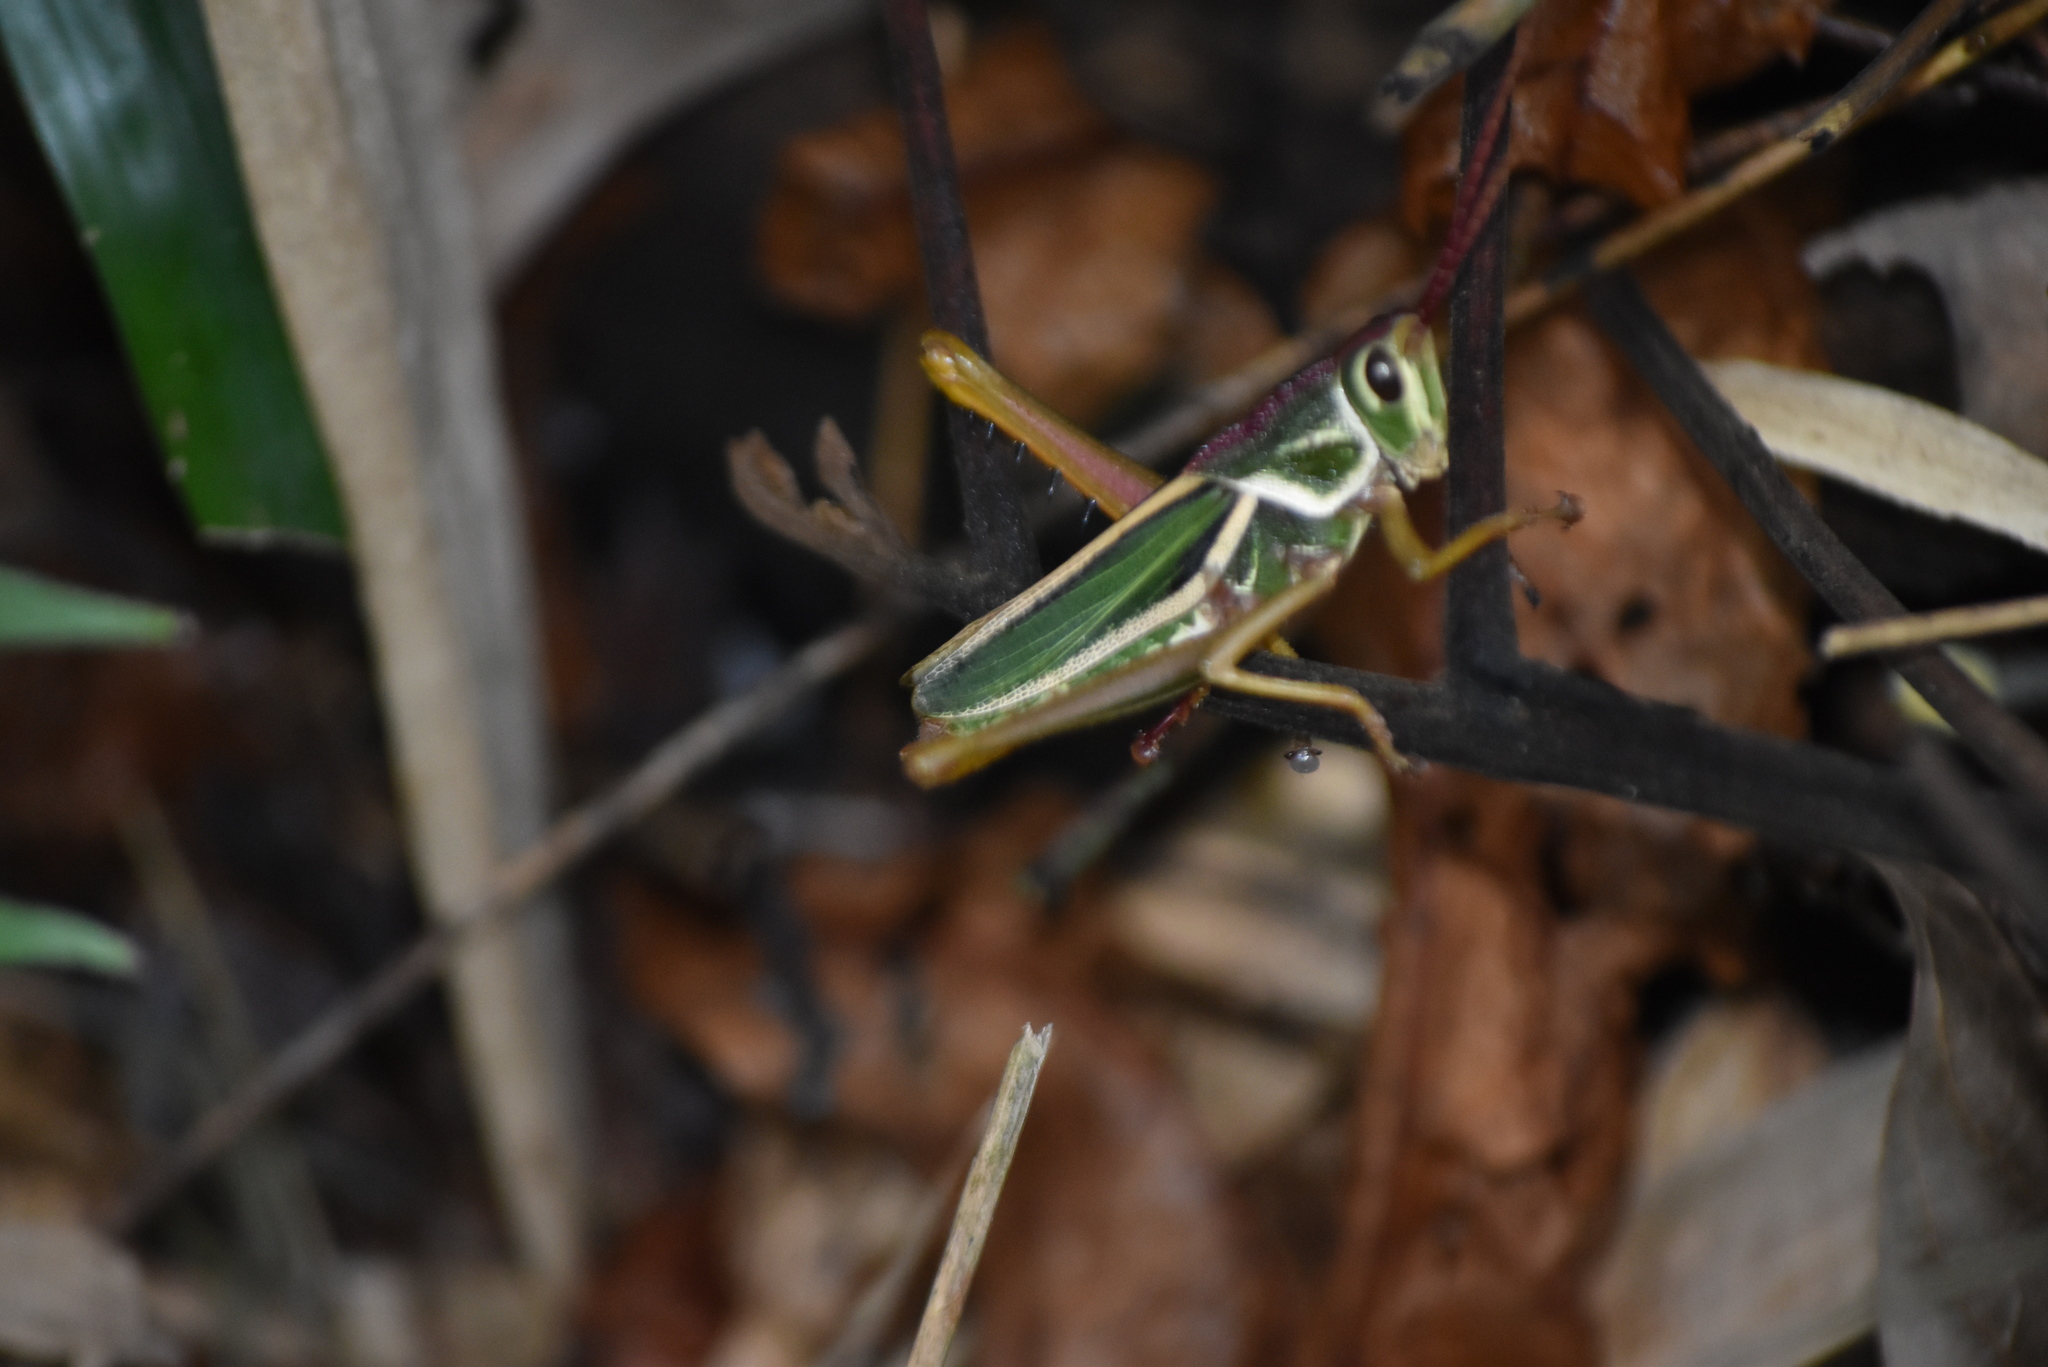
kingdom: Animalia
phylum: Arthropoda
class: Insecta
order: Orthoptera
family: Romaleidae
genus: Staleochlora
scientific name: Staleochlora arcuata
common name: Paraná purple-backed grasshopper
